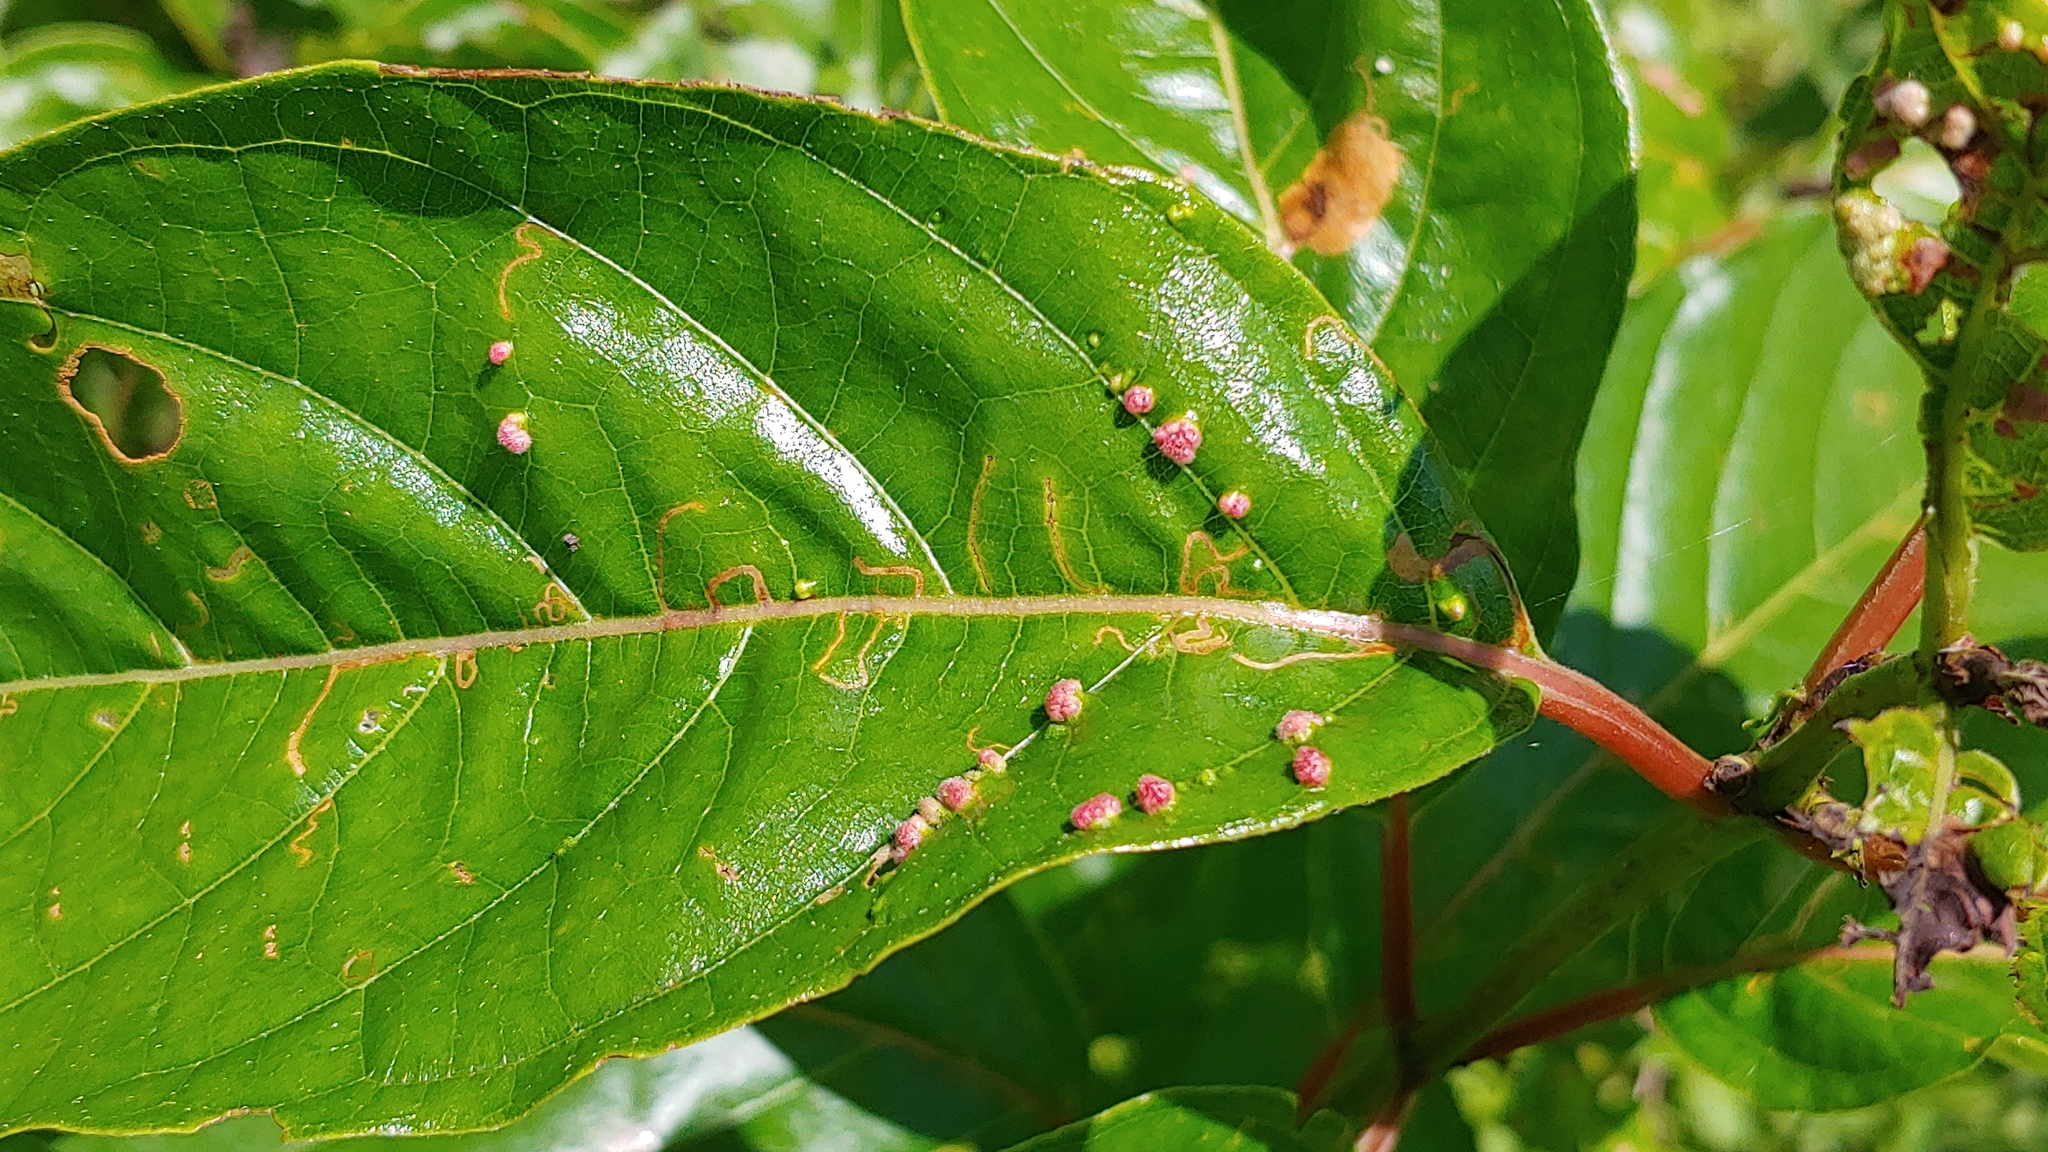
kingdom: Animalia
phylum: Arthropoda
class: Arachnida
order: Trombidiformes
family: Eriophyidae
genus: Aceria
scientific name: Aceria
